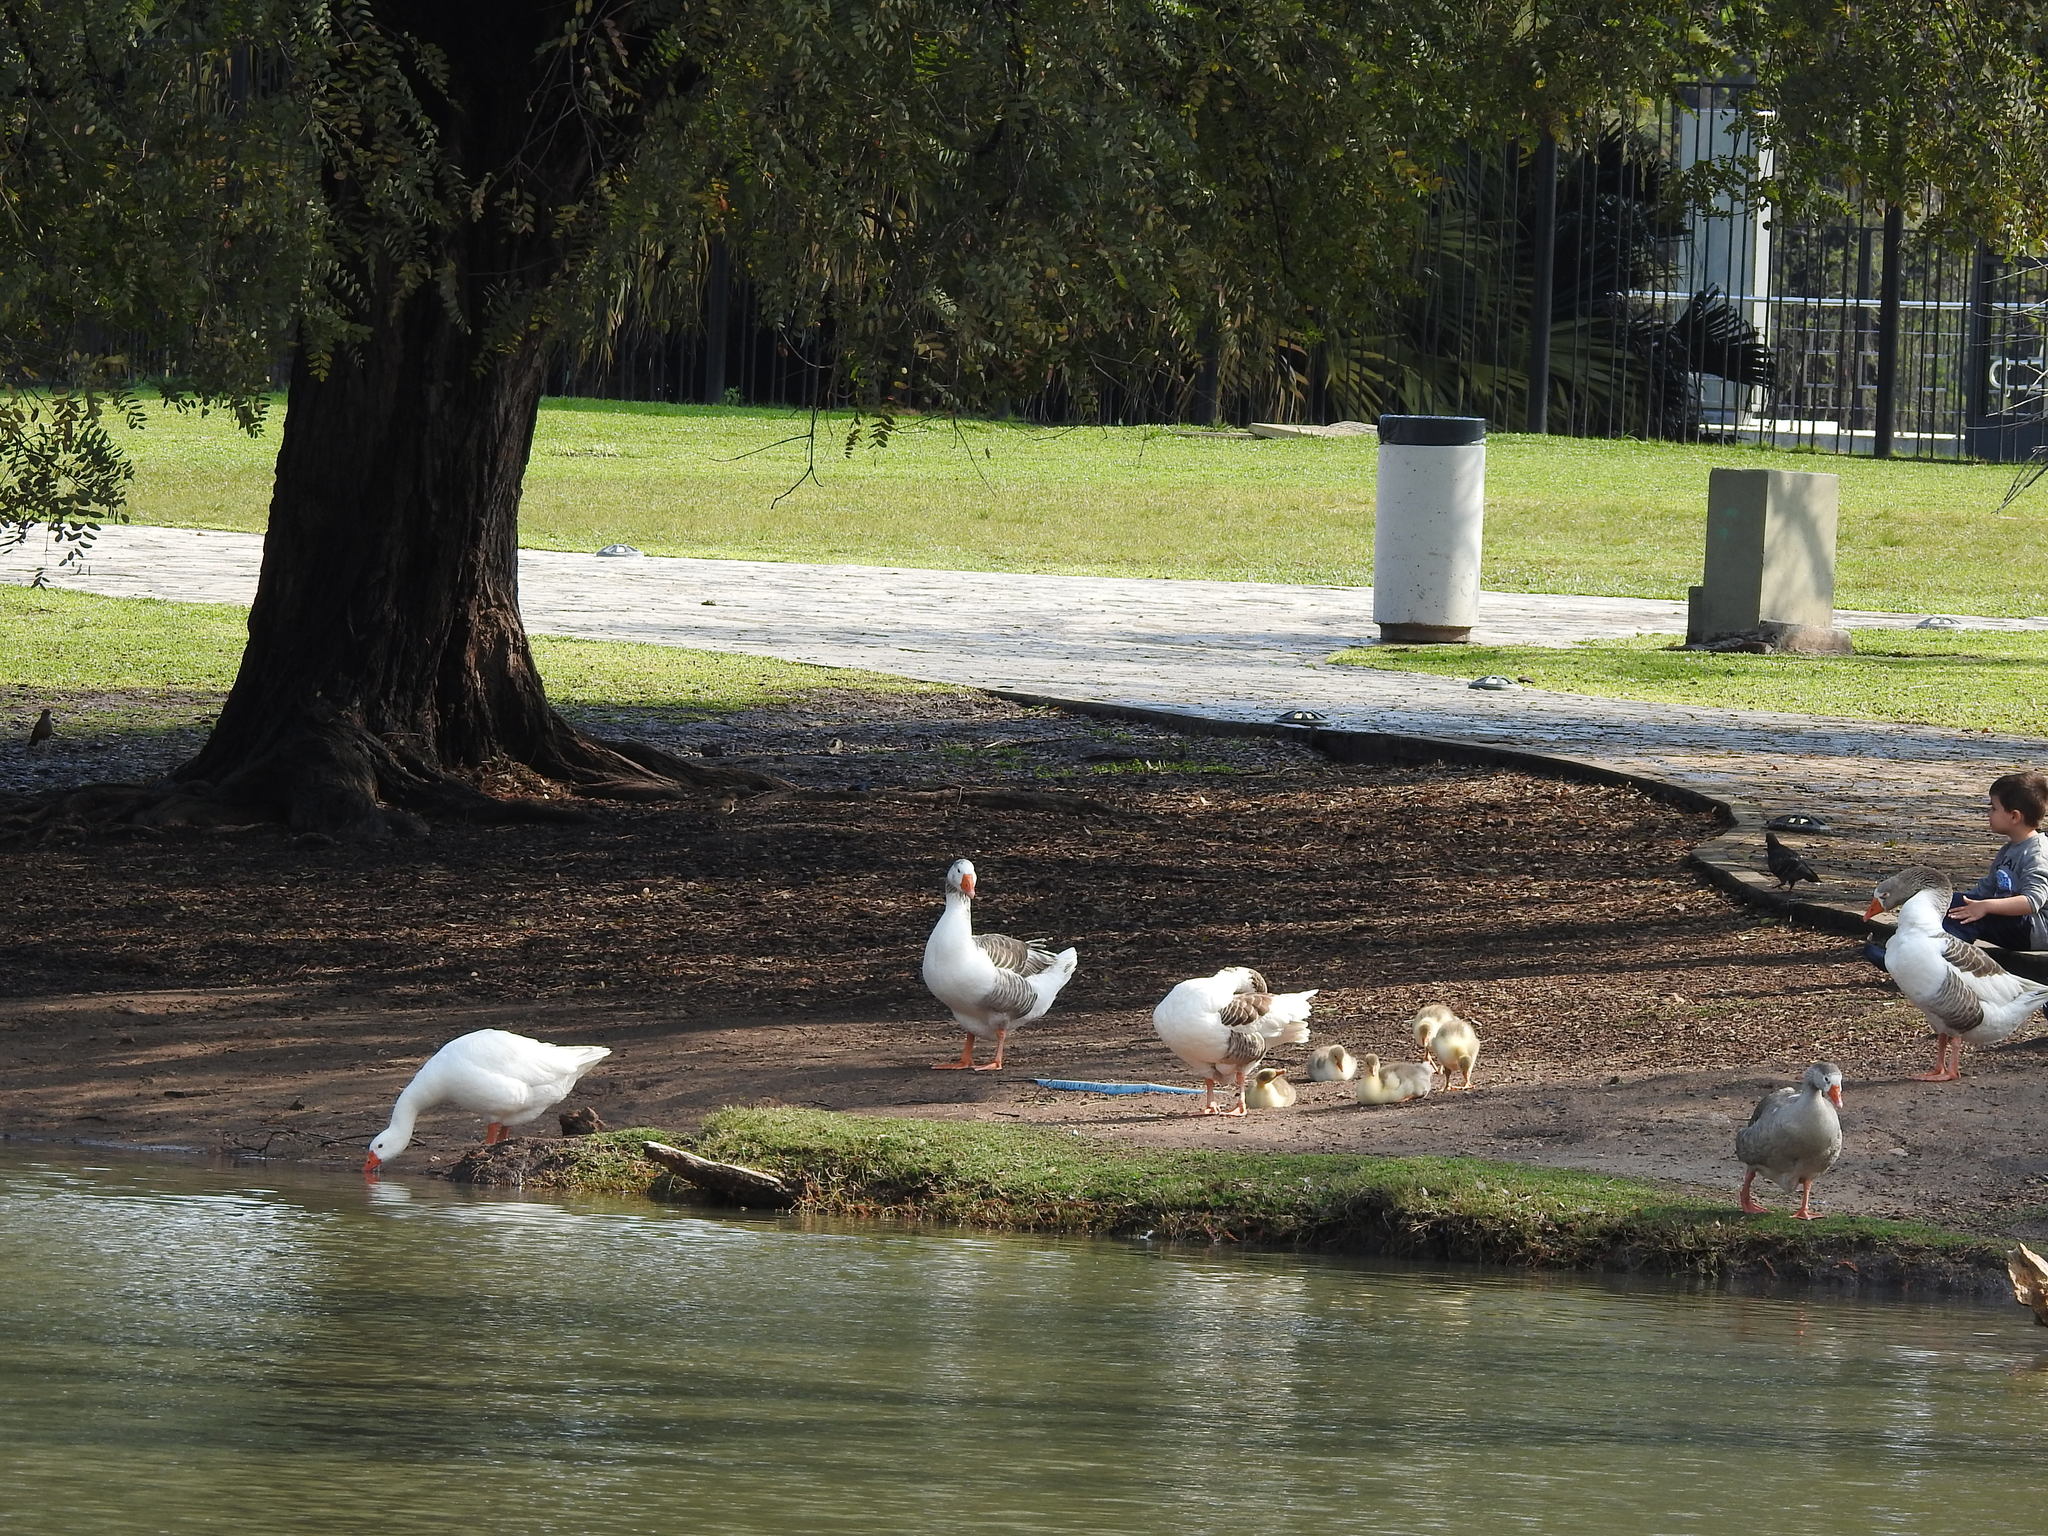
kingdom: Animalia
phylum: Chordata
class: Aves
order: Anseriformes
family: Anatidae
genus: Anser
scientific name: Anser anser
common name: Greylag goose
